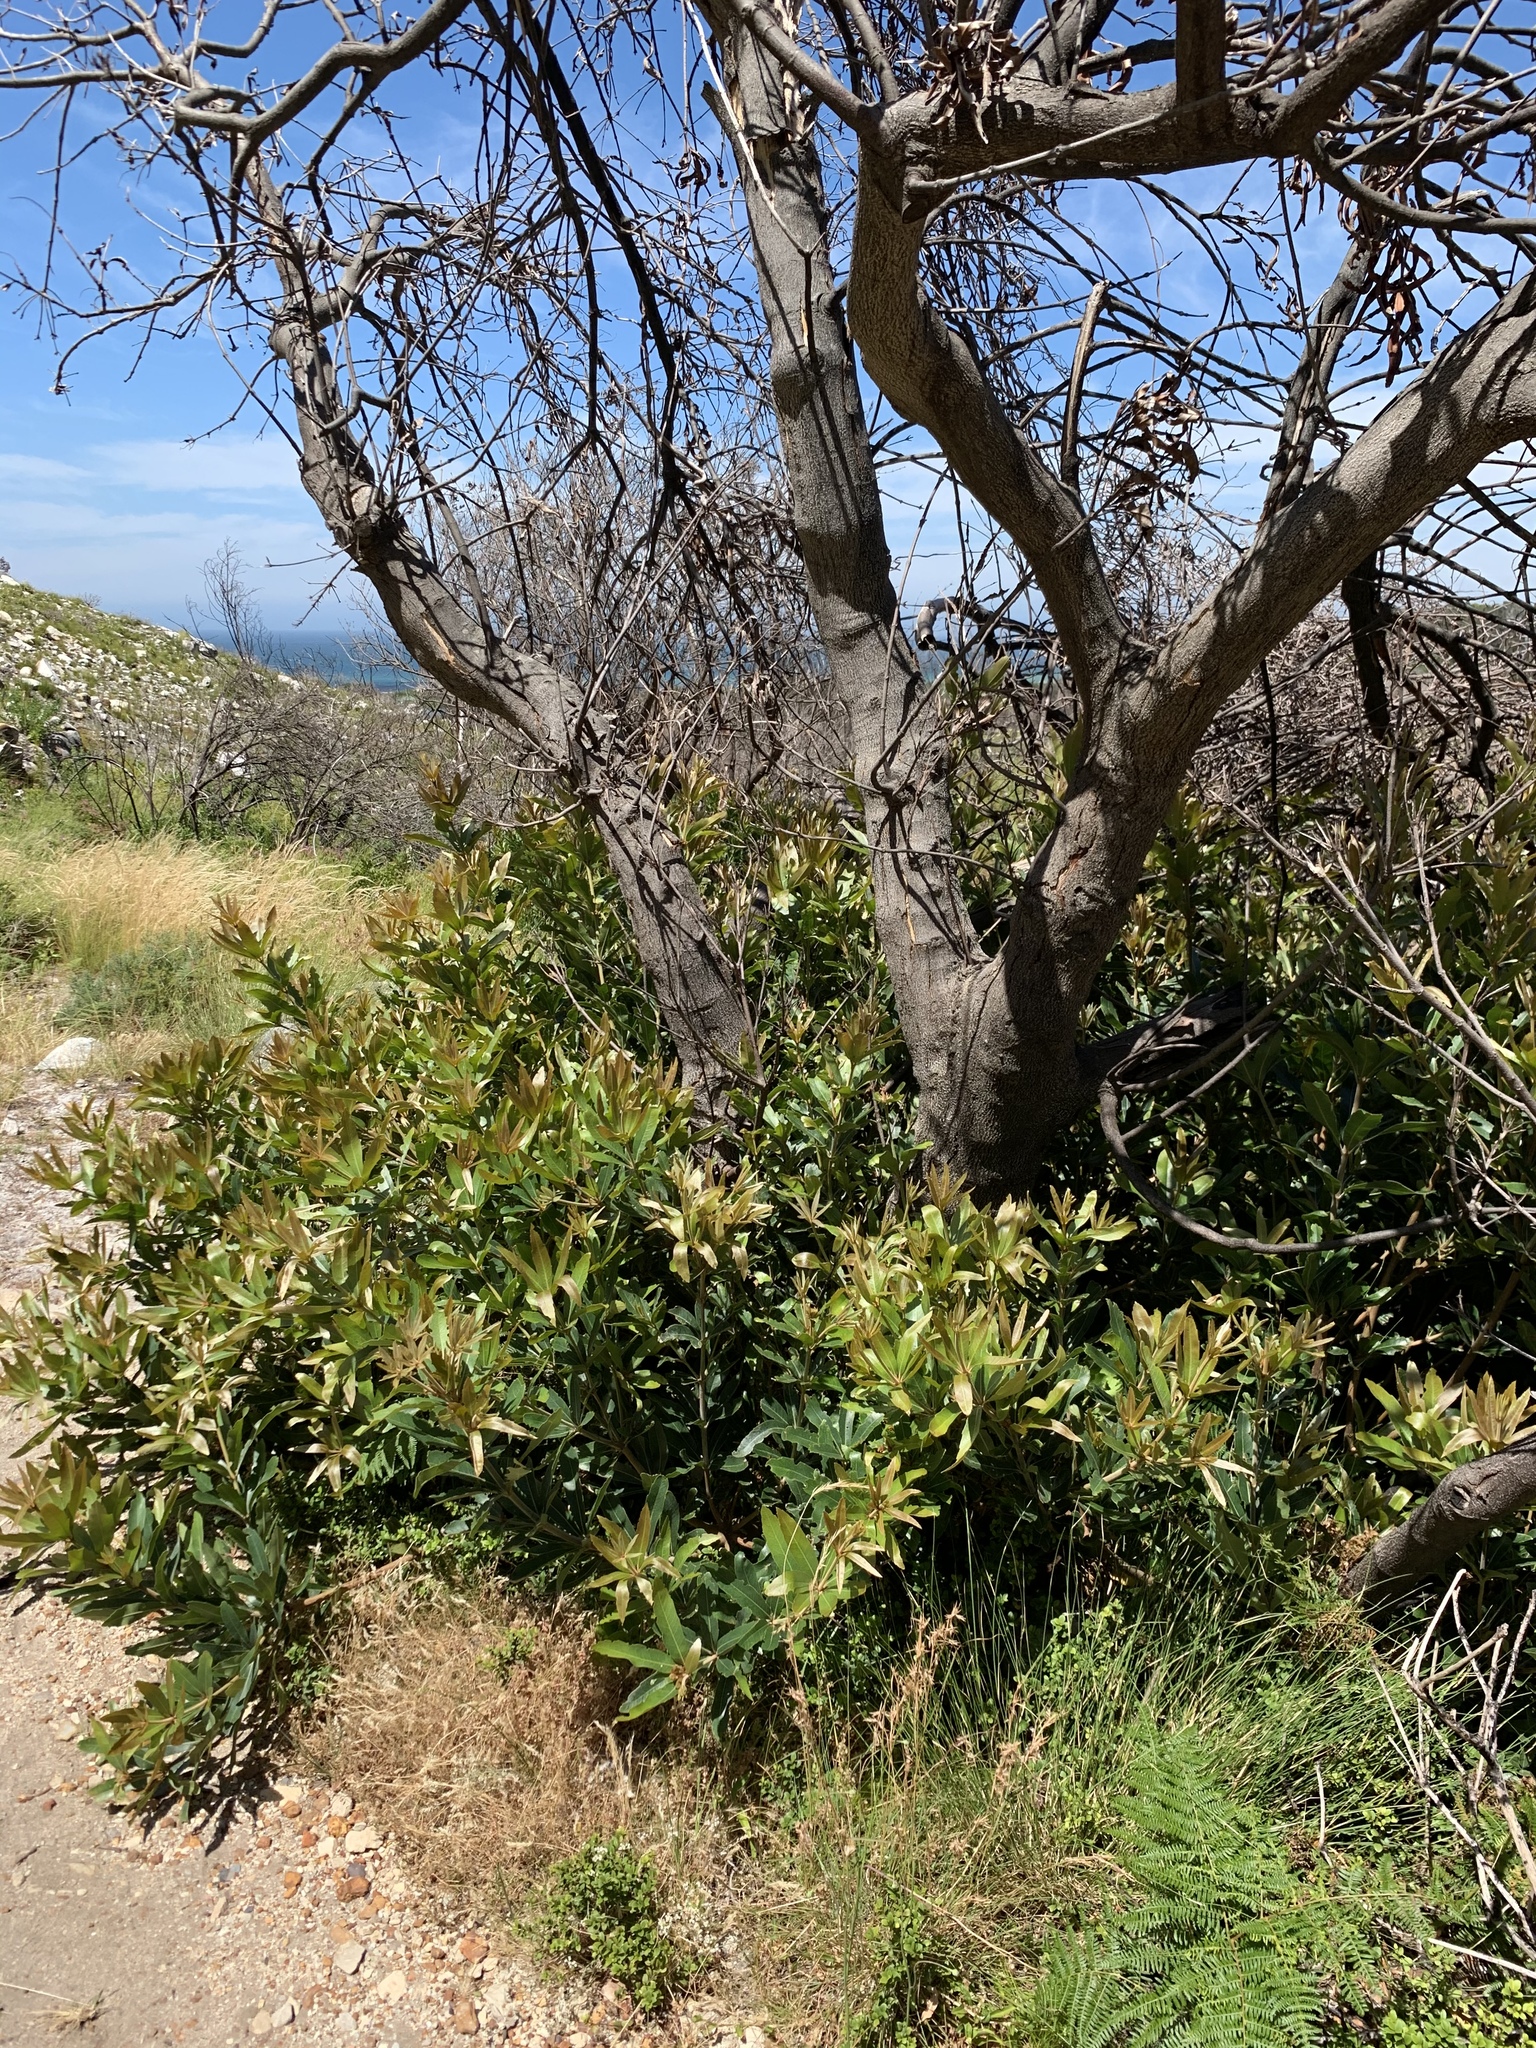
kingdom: Plantae
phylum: Tracheophyta
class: Magnoliopsida
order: Proteales
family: Proteaceae
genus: Brabejum
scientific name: Brabejum stellatifolium
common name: Wild almond
